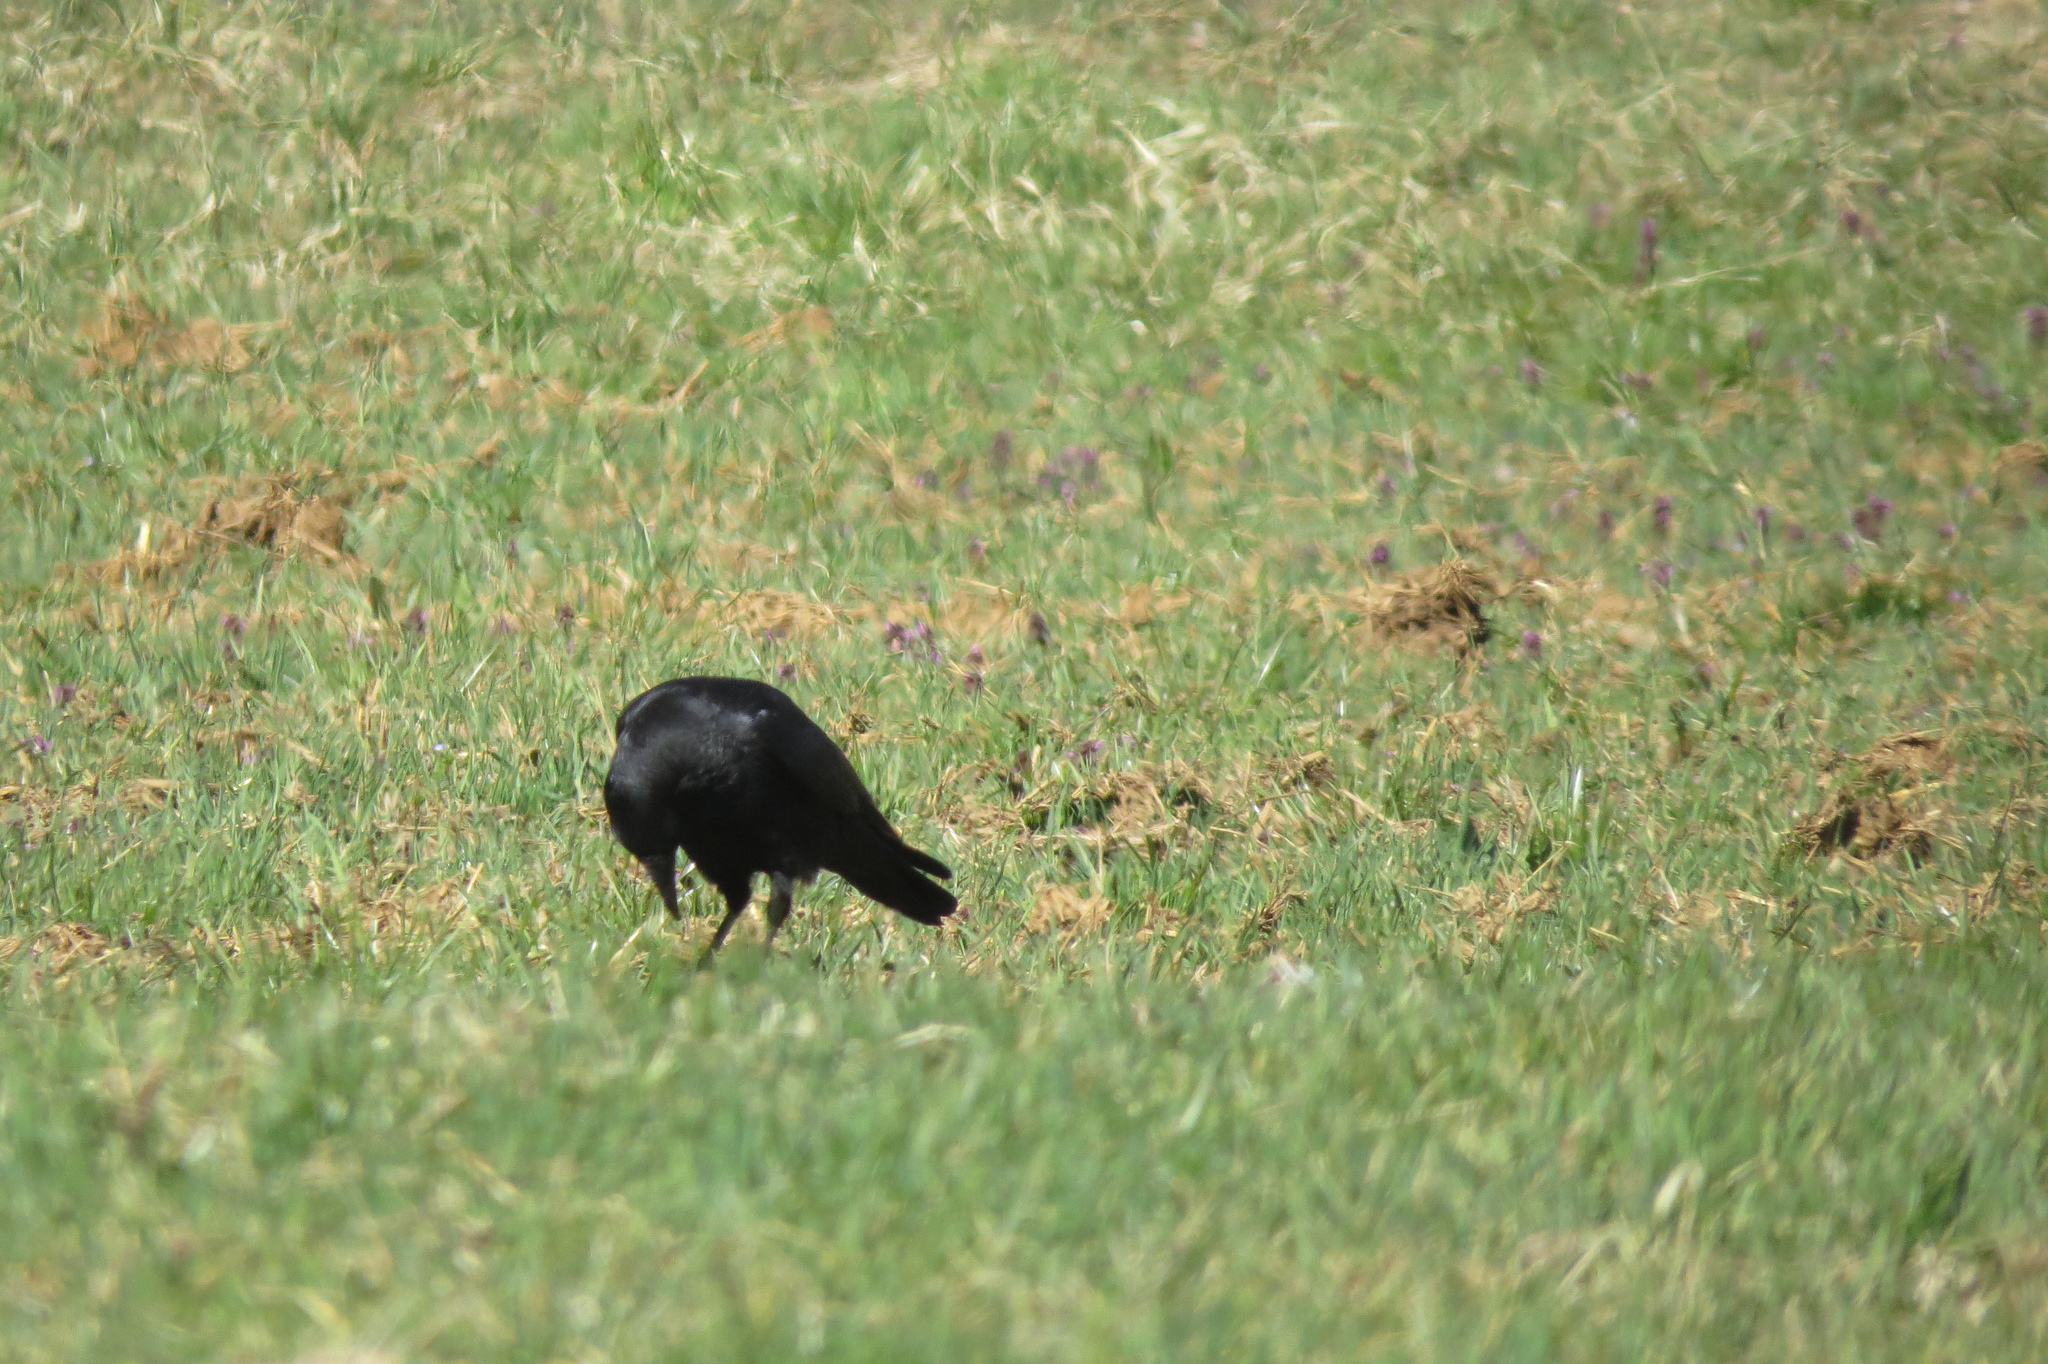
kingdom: Animalia
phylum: Chordata
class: Aves
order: Passeriformes
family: Corvidae
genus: Corvus
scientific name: Corvus corone
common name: Carrion crow
